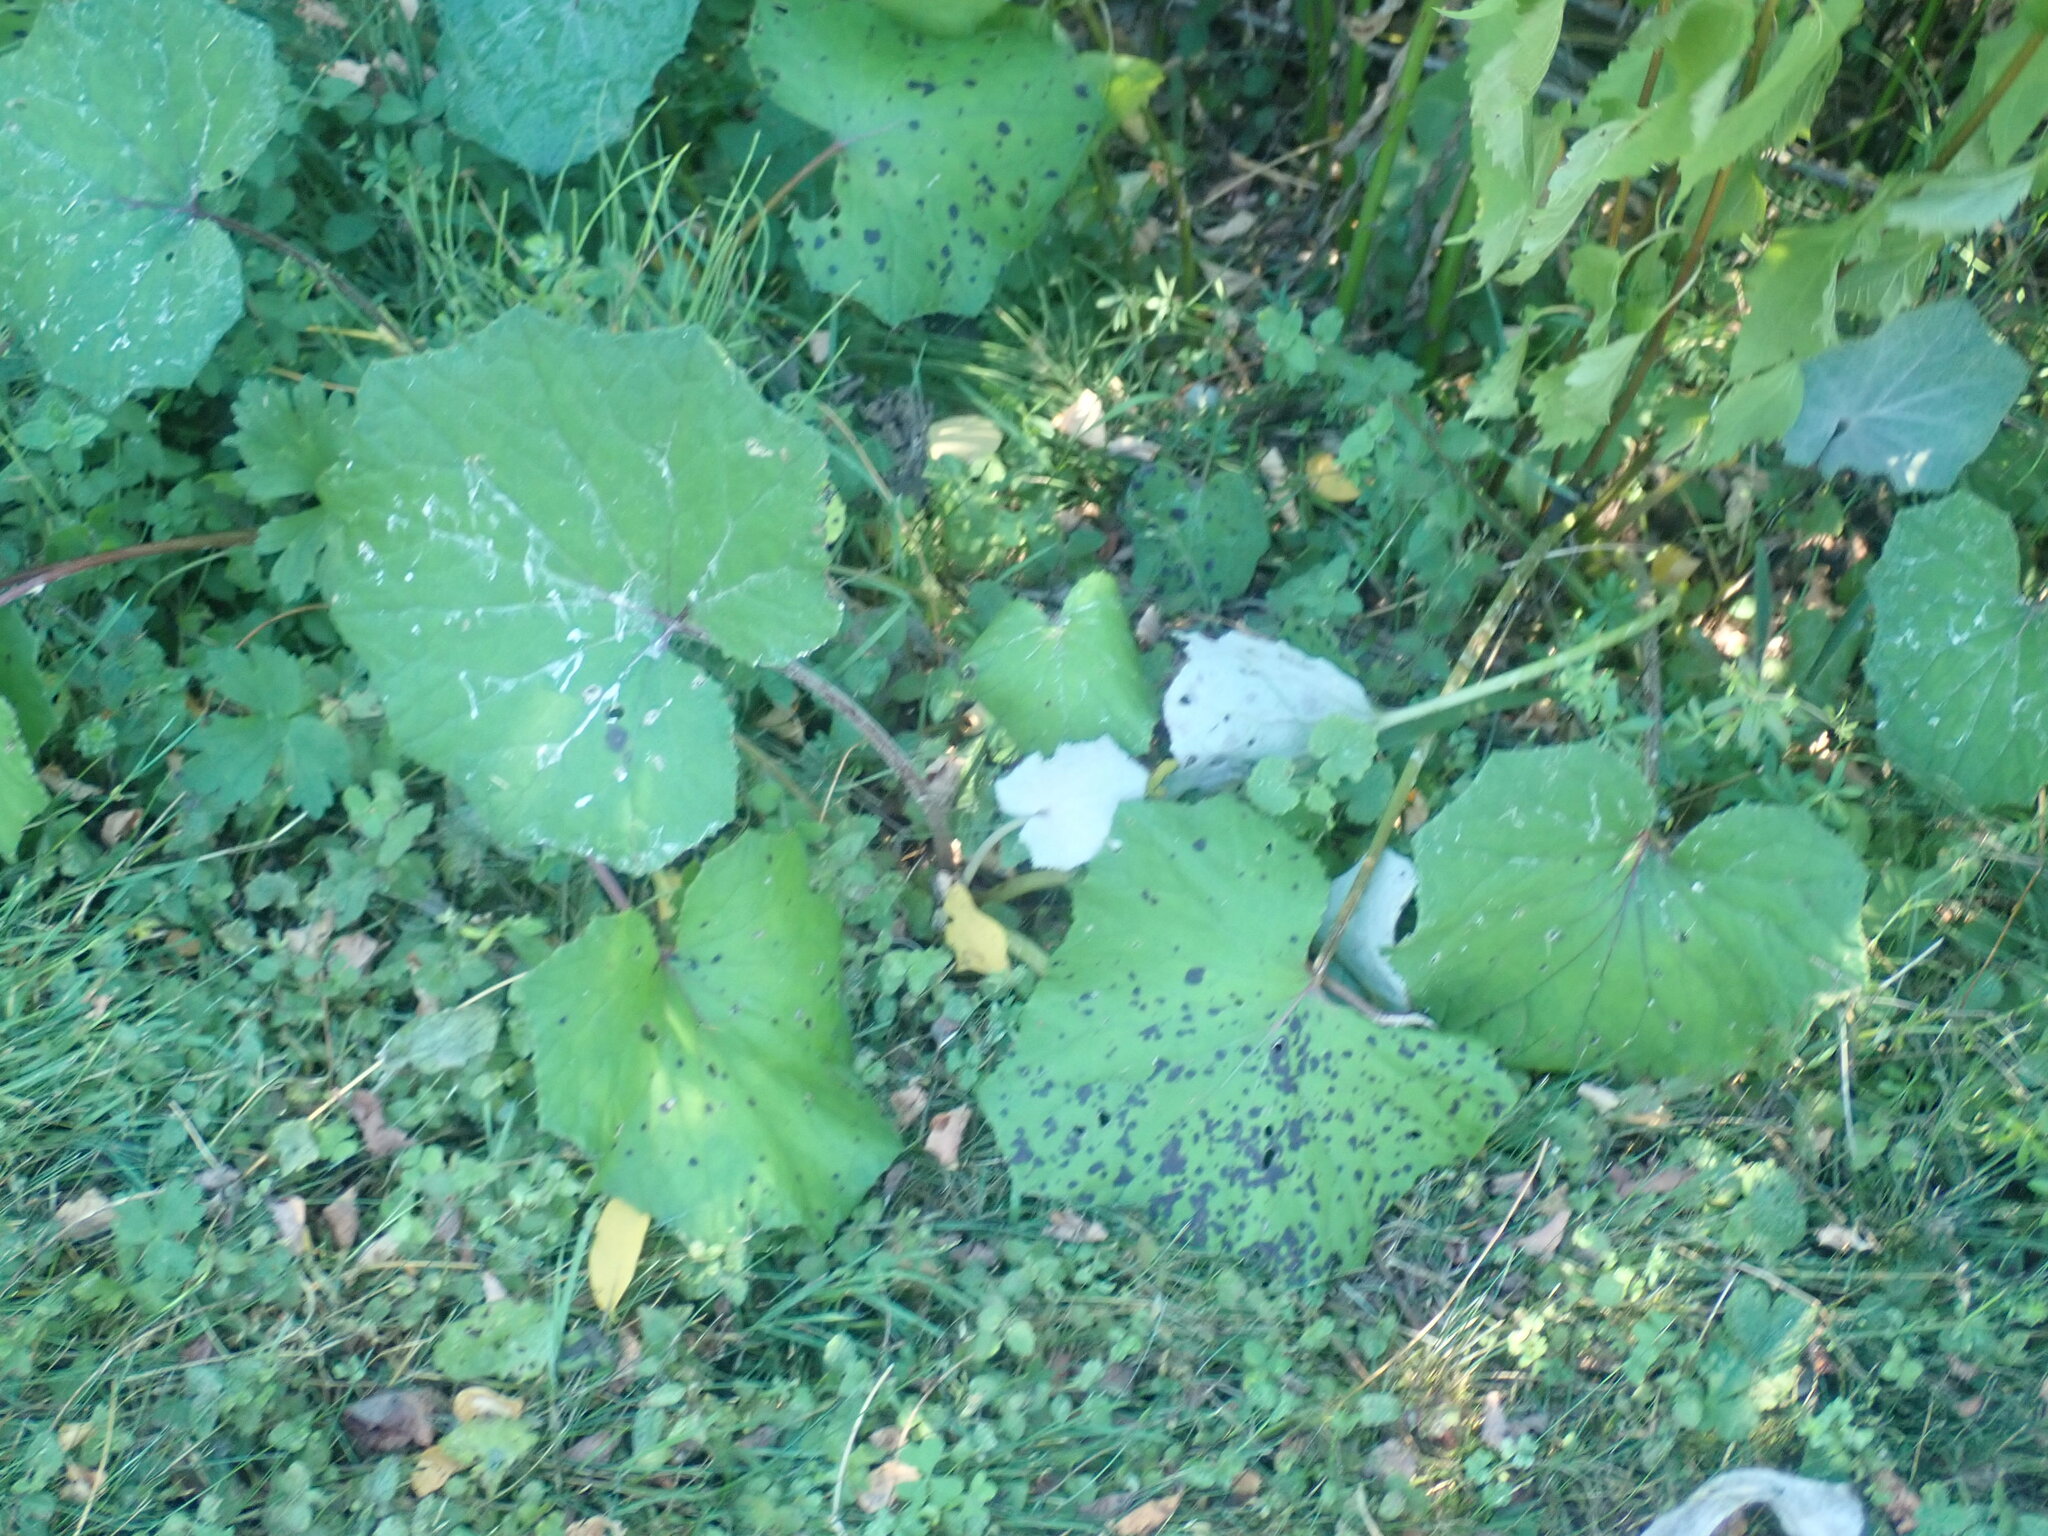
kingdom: Plantae
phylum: Tracheophyta
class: Magnoliopsida
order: Asterales
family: Asteraceae
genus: Tussilago
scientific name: Tussilago farfara
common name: Coltsfoot
